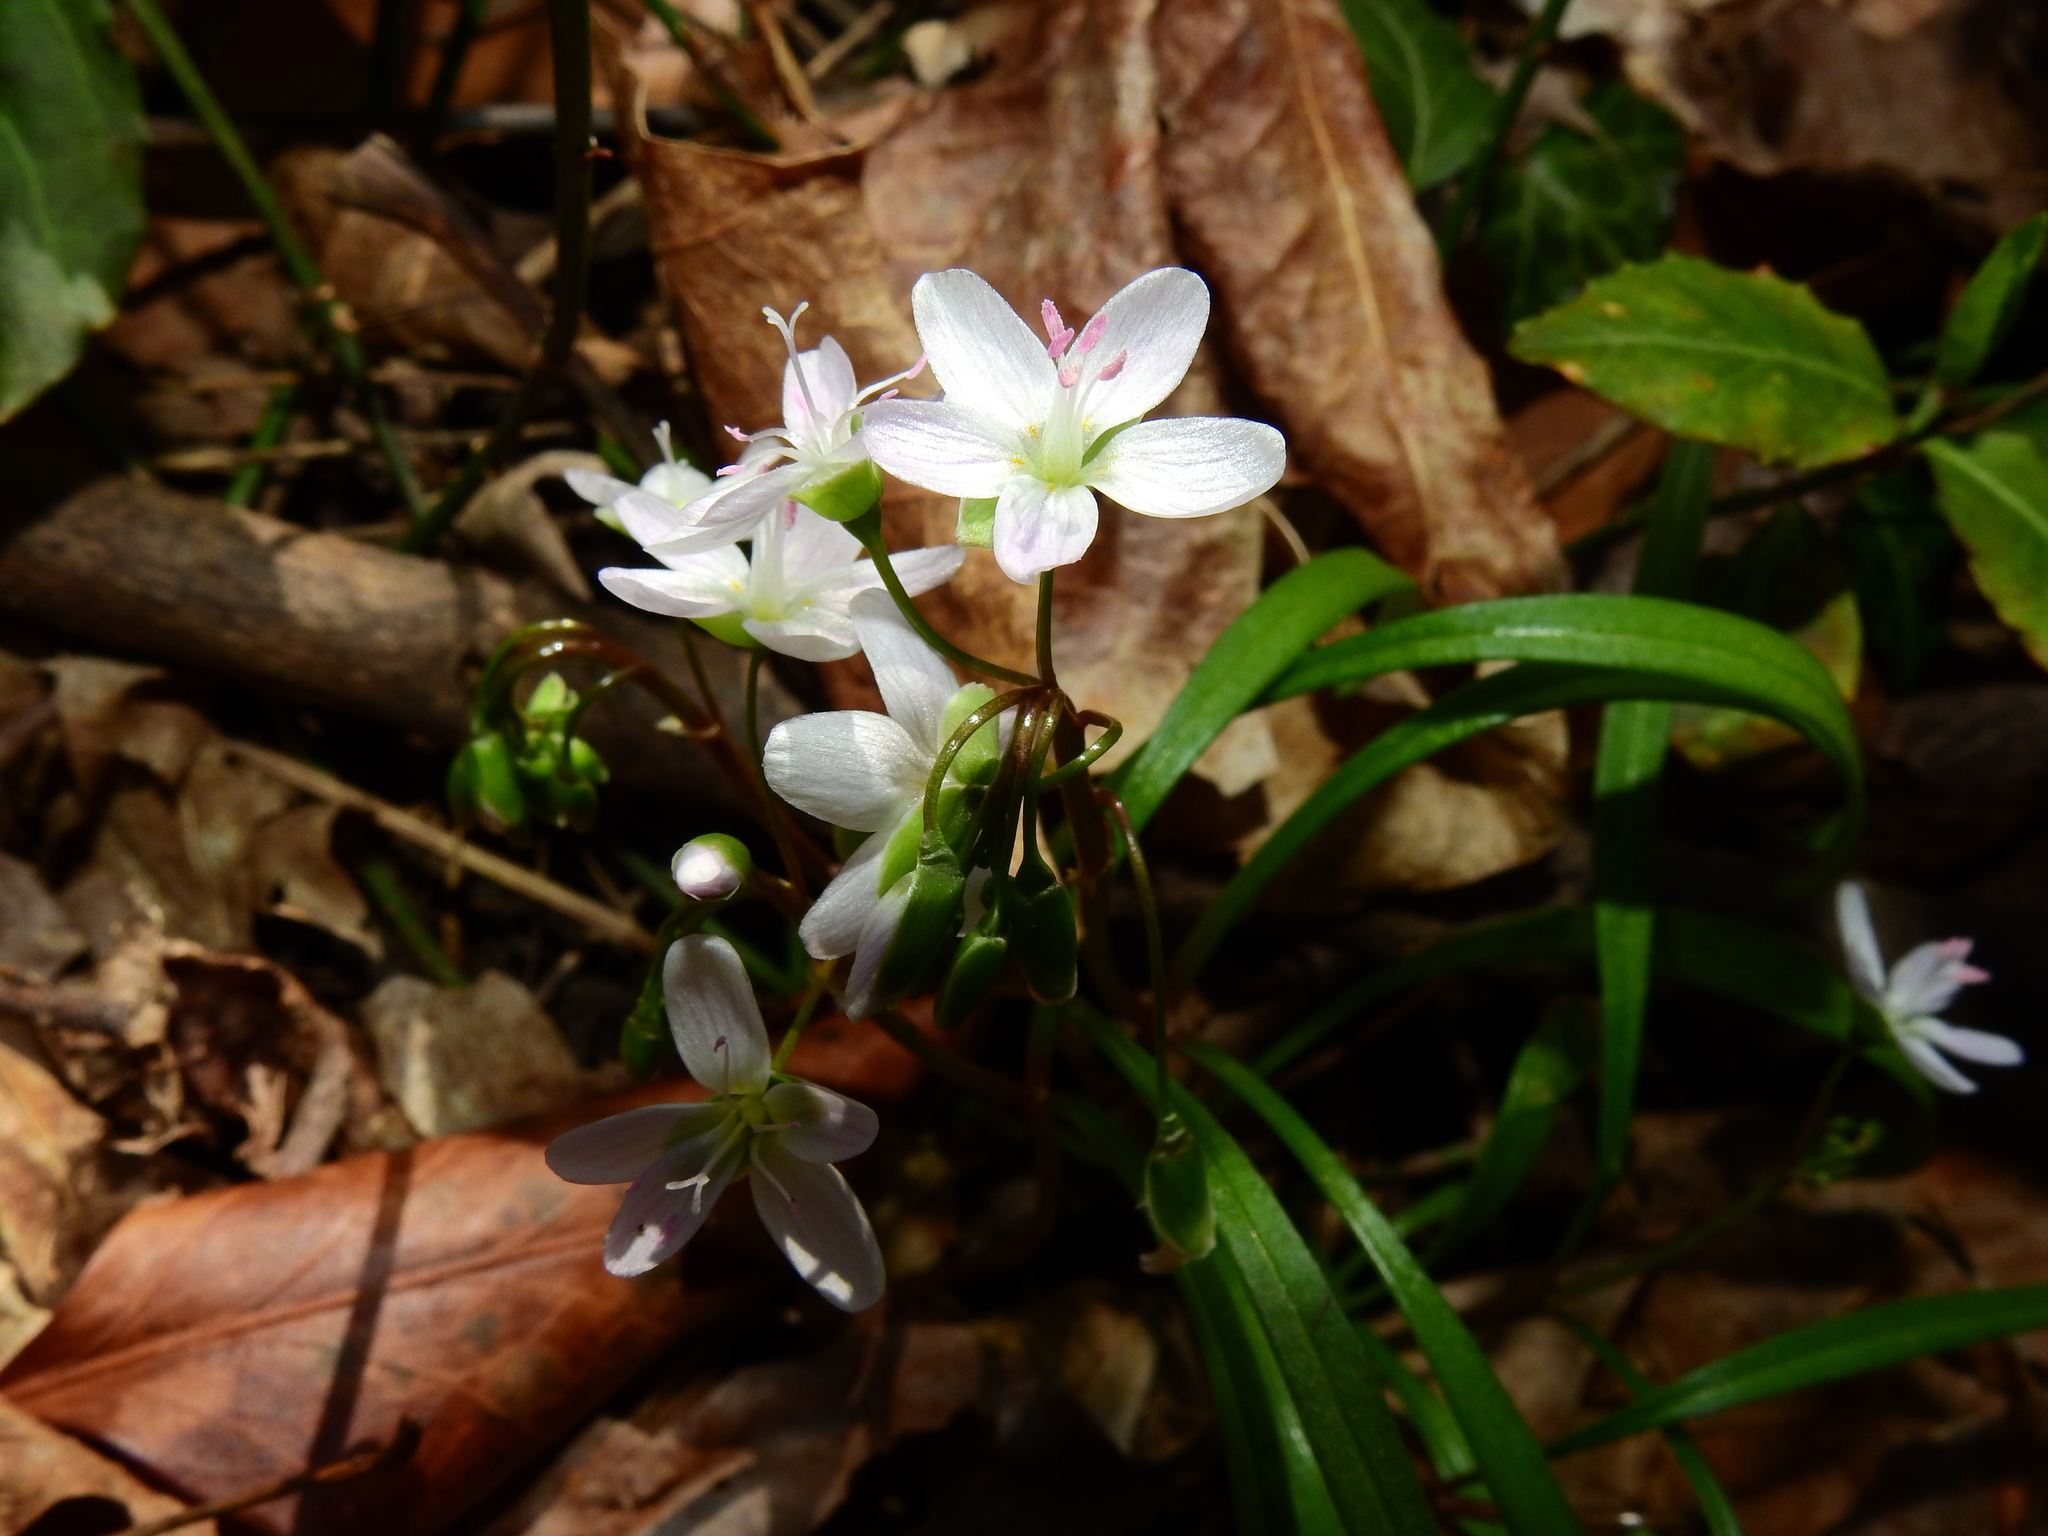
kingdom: Plantae
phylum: Tracheophyta
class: Magnoliopsida
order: Caryophyllales
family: Montiaceae
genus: Claytonia
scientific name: Claytonia virginica
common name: Virginia springbeauty
